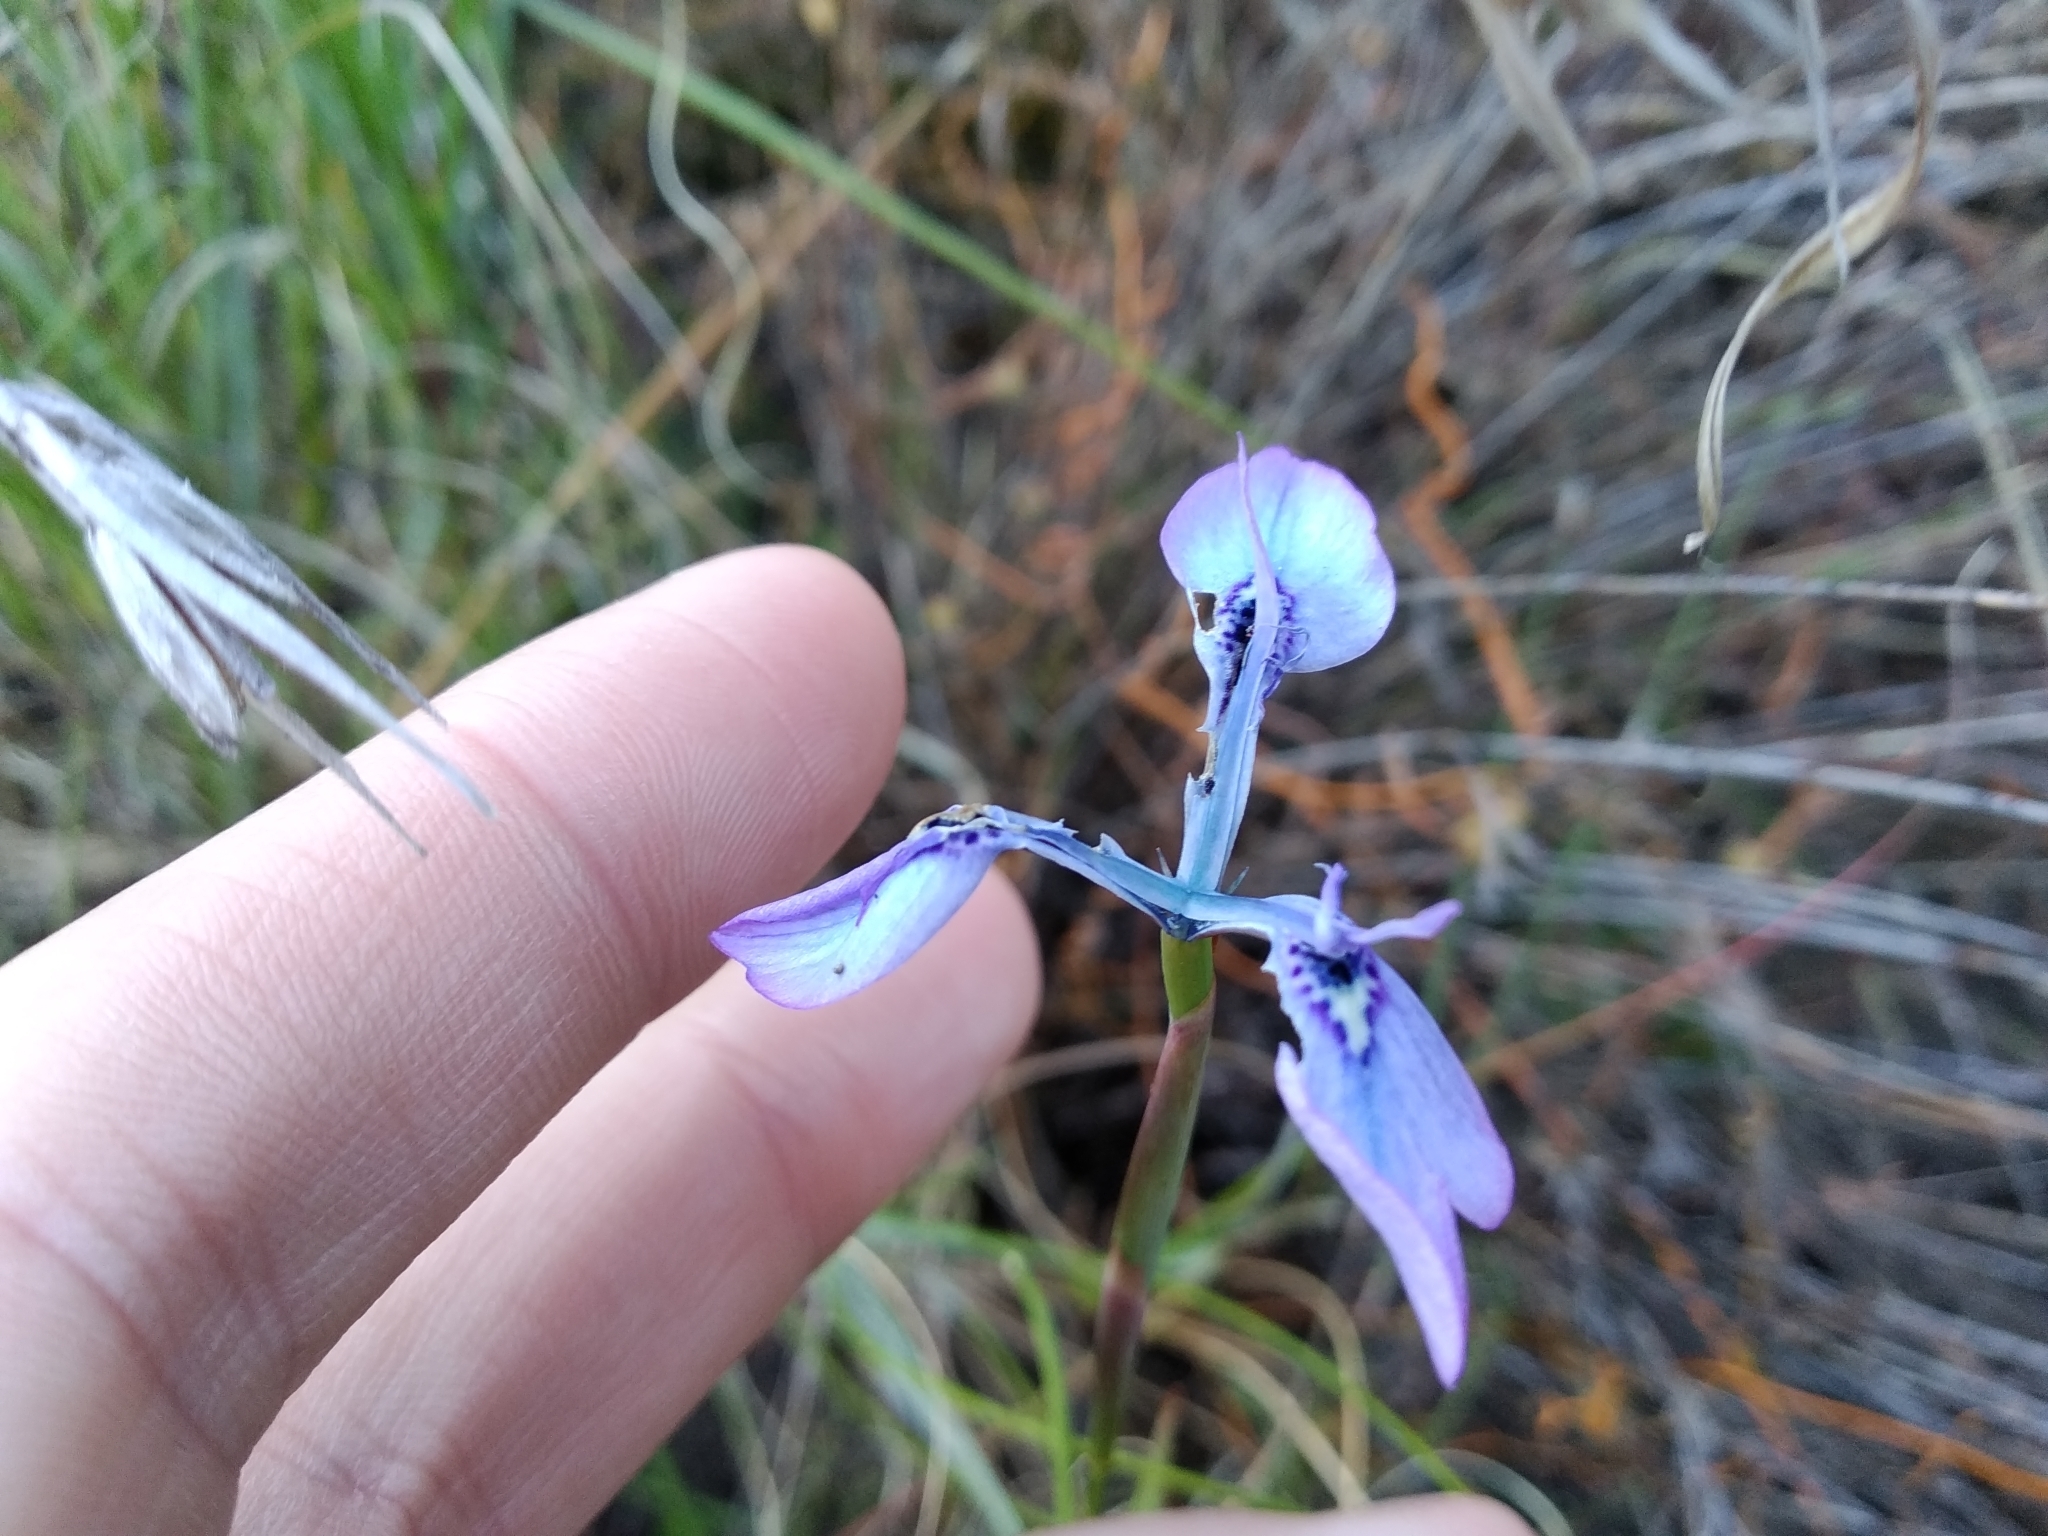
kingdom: Plantae
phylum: Tracheophyta
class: Liliopsida
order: Asparagales
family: Iridaceae
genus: Moraea
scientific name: Moraea tripetala
